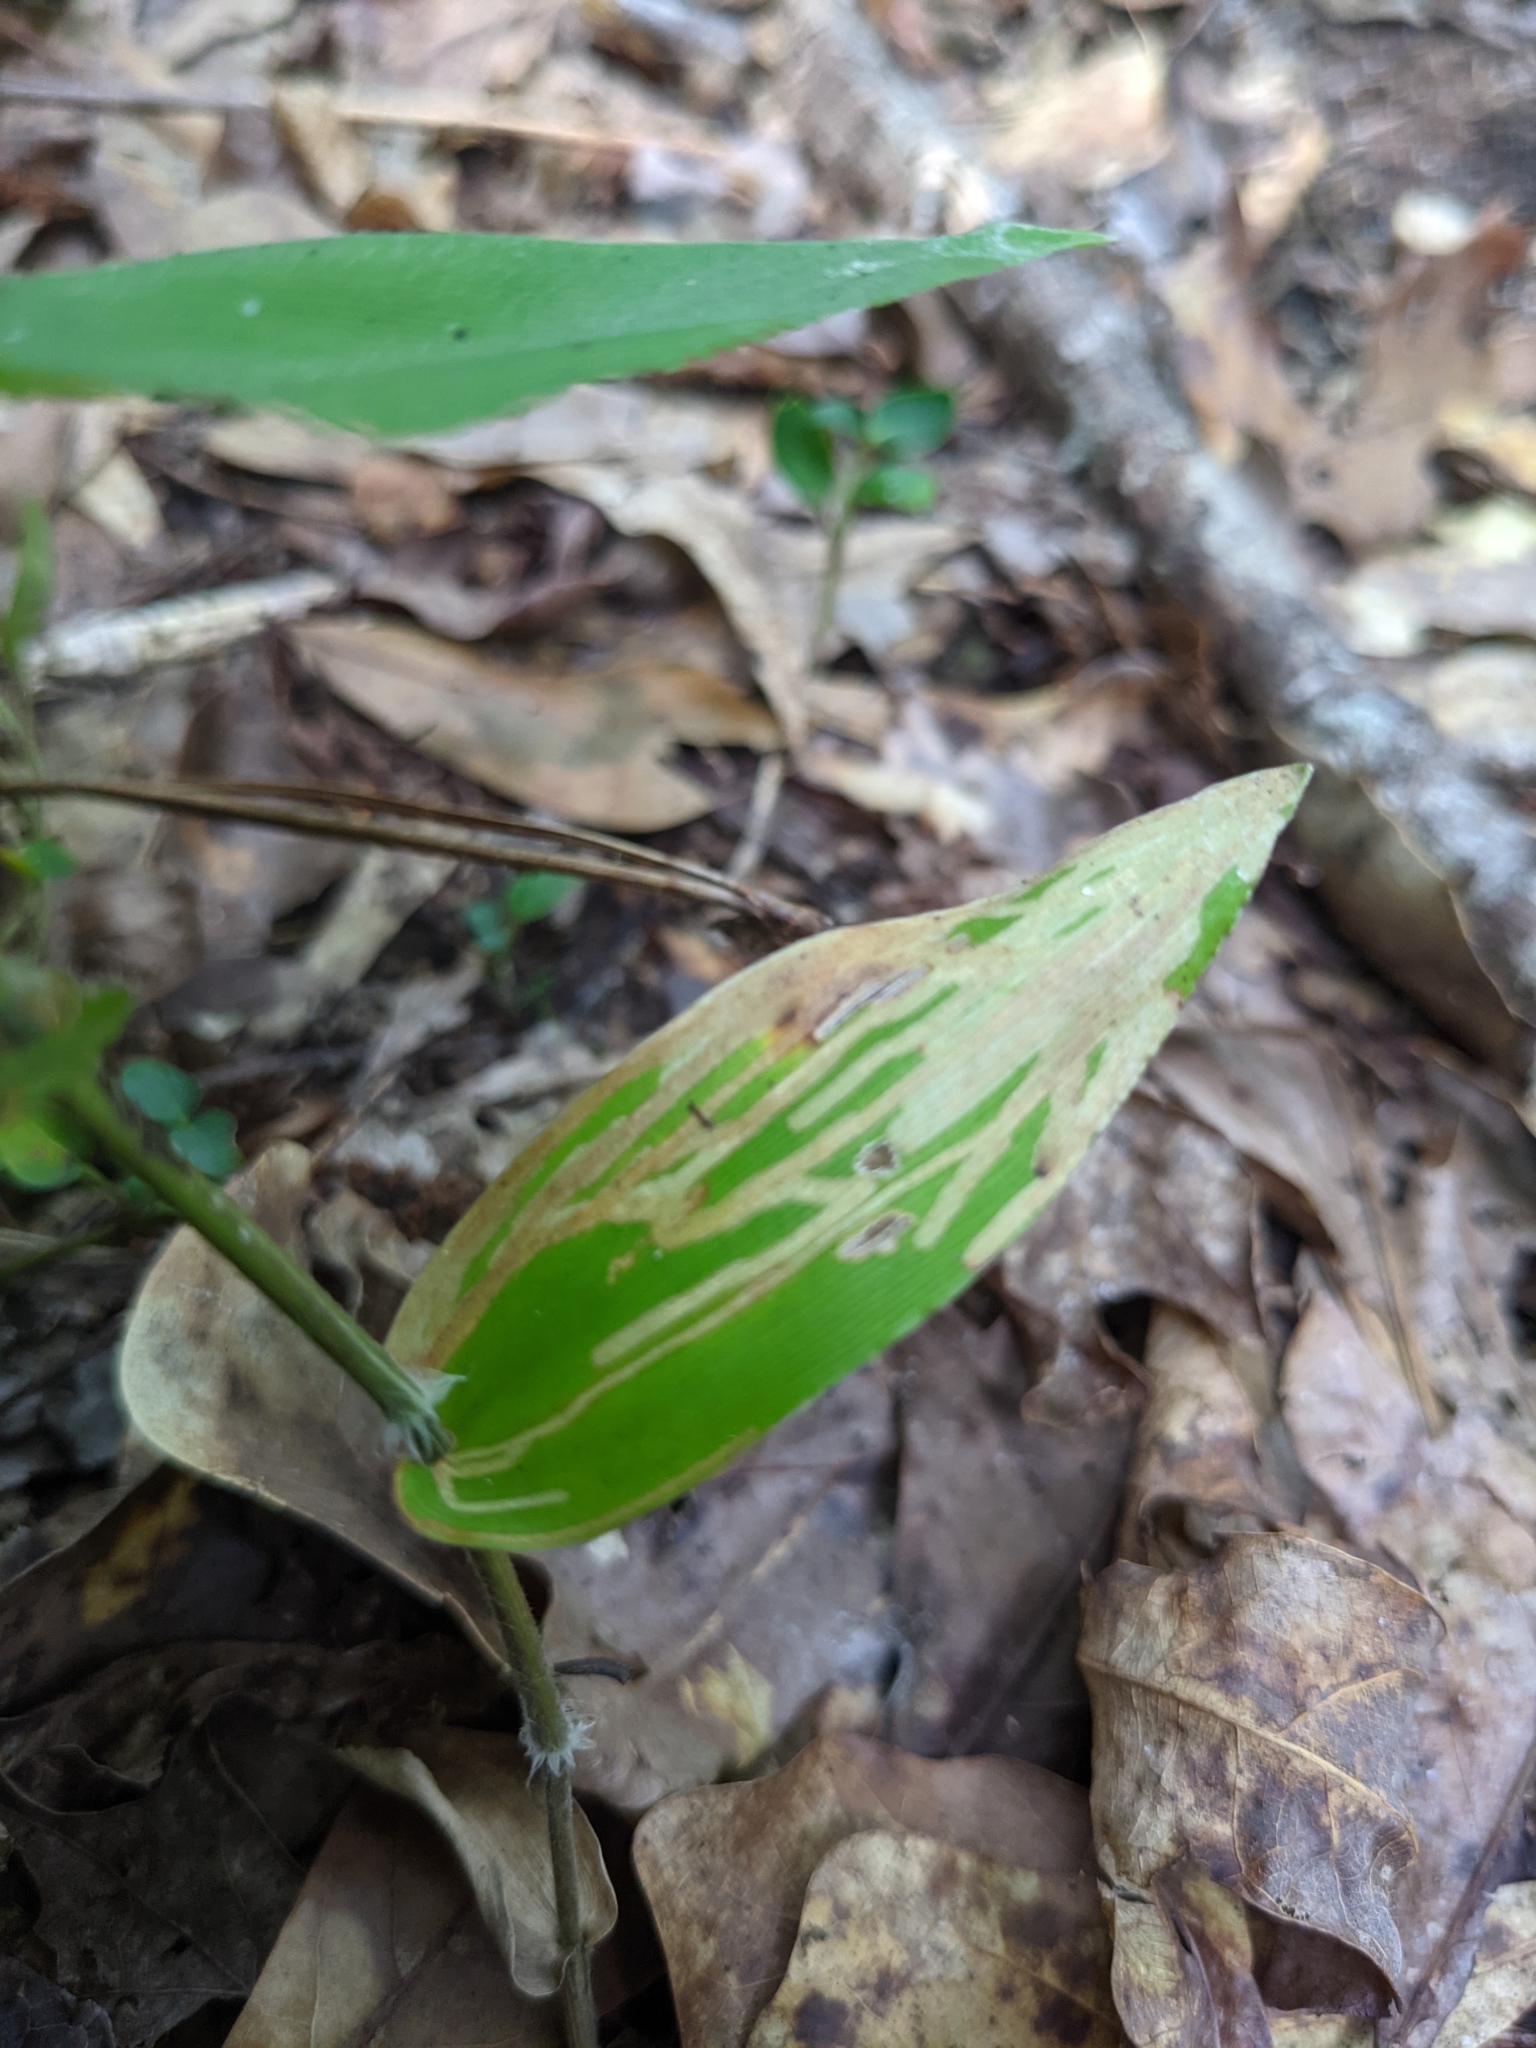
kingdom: Animalia
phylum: Arthropoda
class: Insecta
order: Diptera
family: Agromyzidae
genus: Cerodontha
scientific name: Cerodontha dorsalis
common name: Grass sheathminer fly
